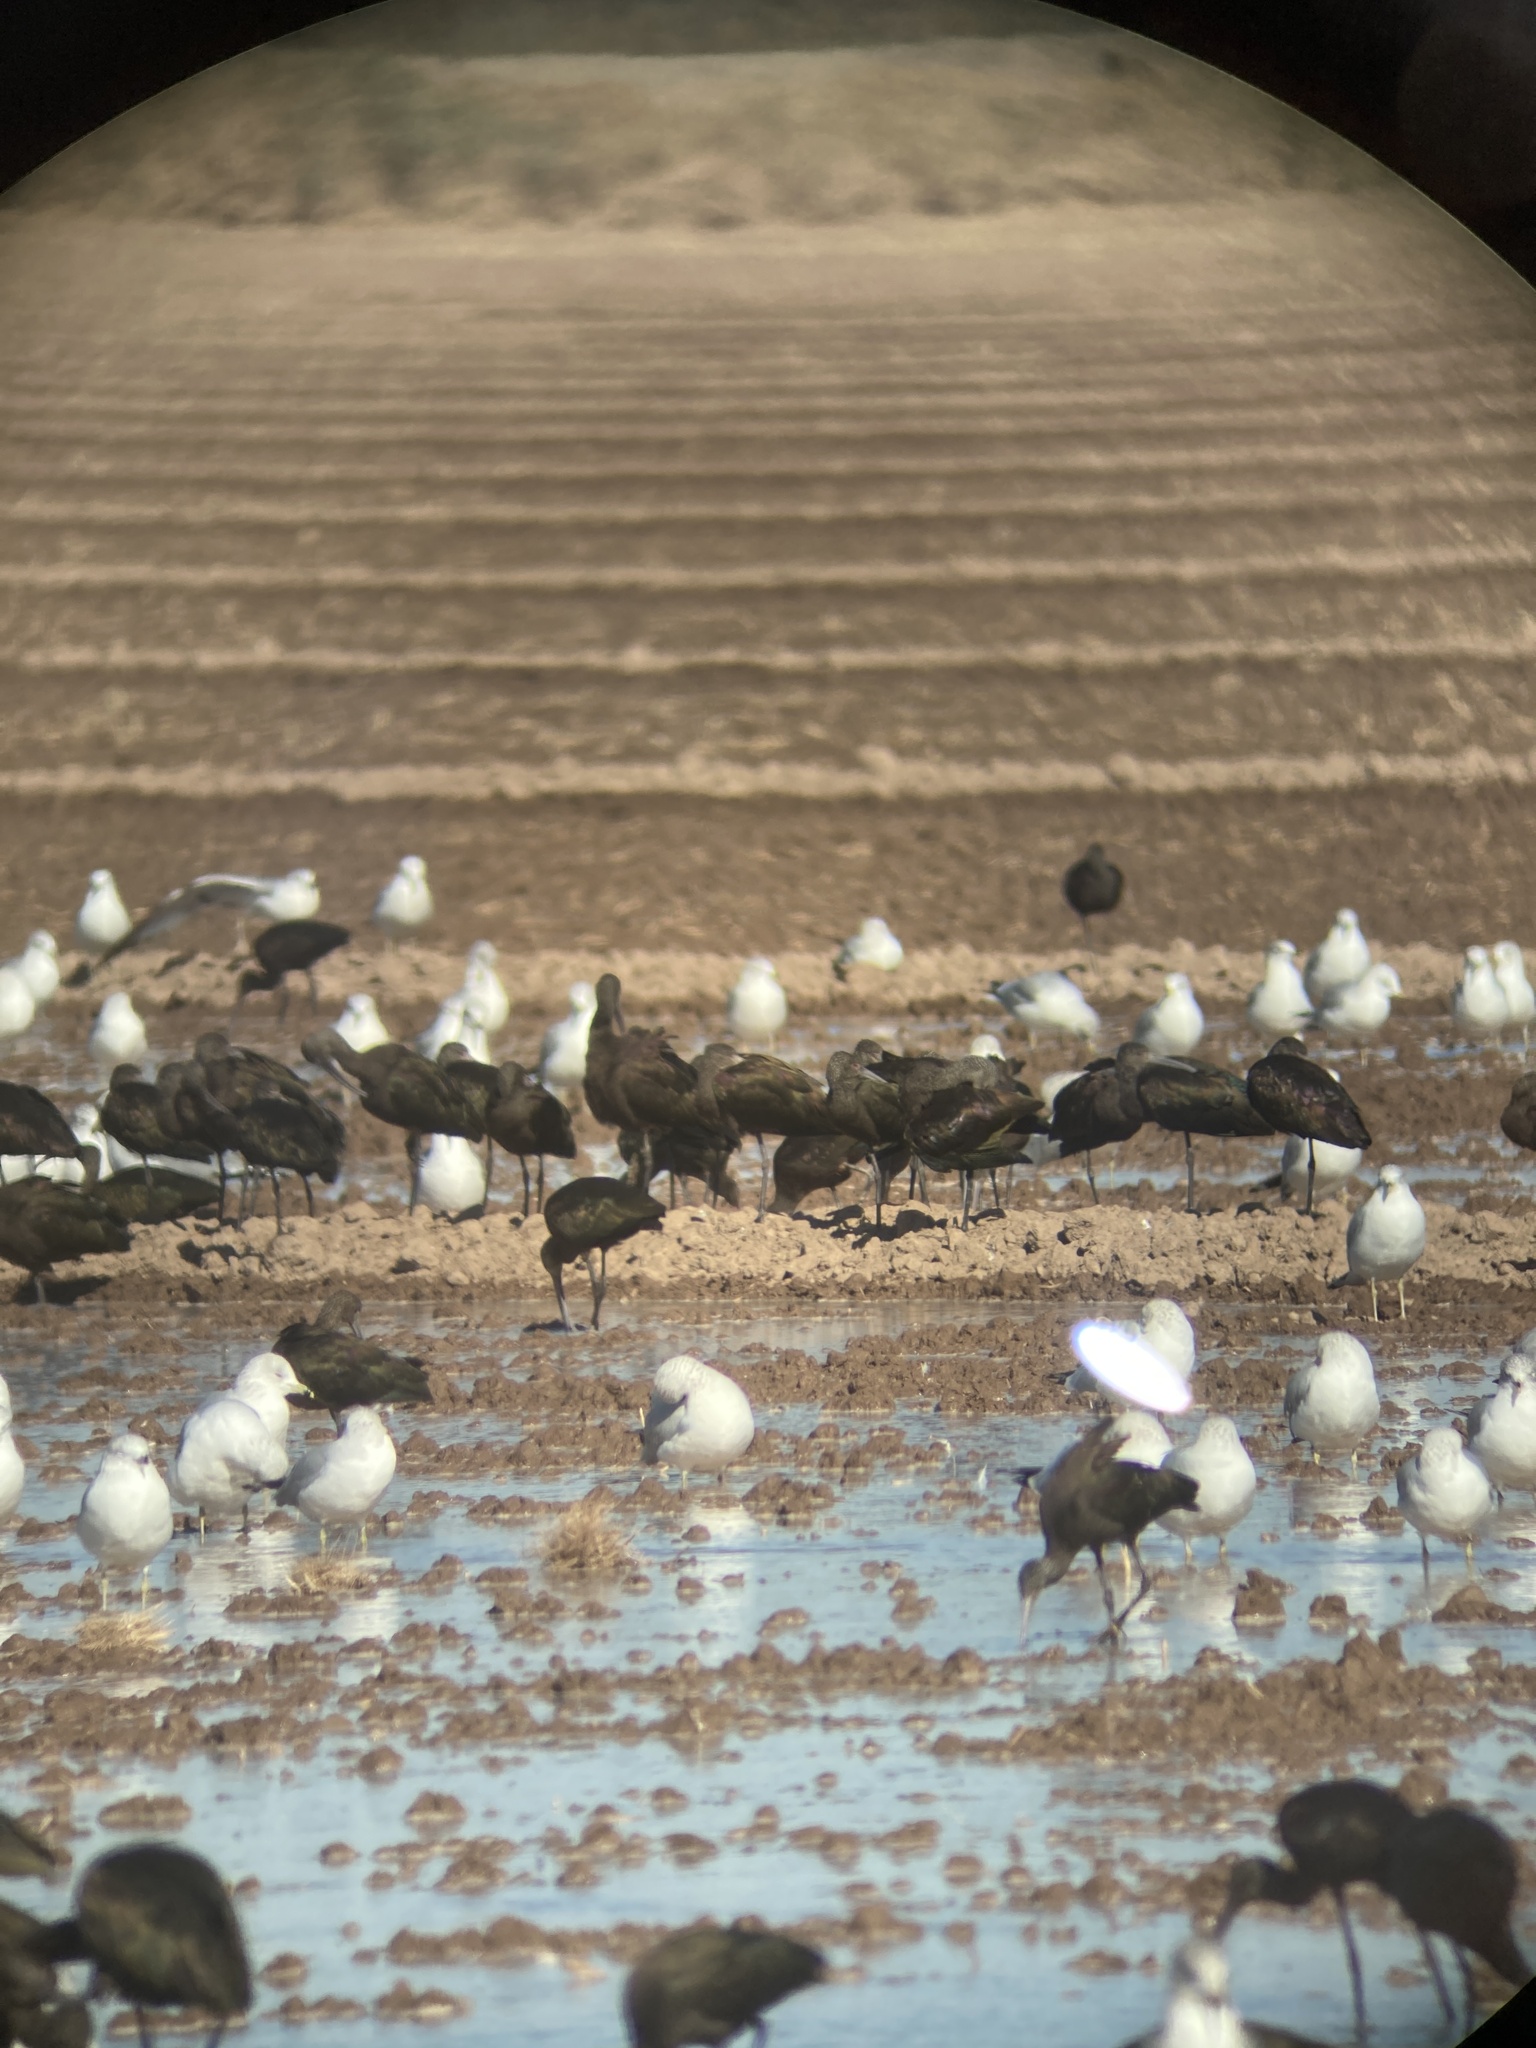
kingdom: Animalia
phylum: Chordata
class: Aves
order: Charadriiformes
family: Laridae
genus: Larus
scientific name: Larus delawarensis
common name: Ring-billed gull
